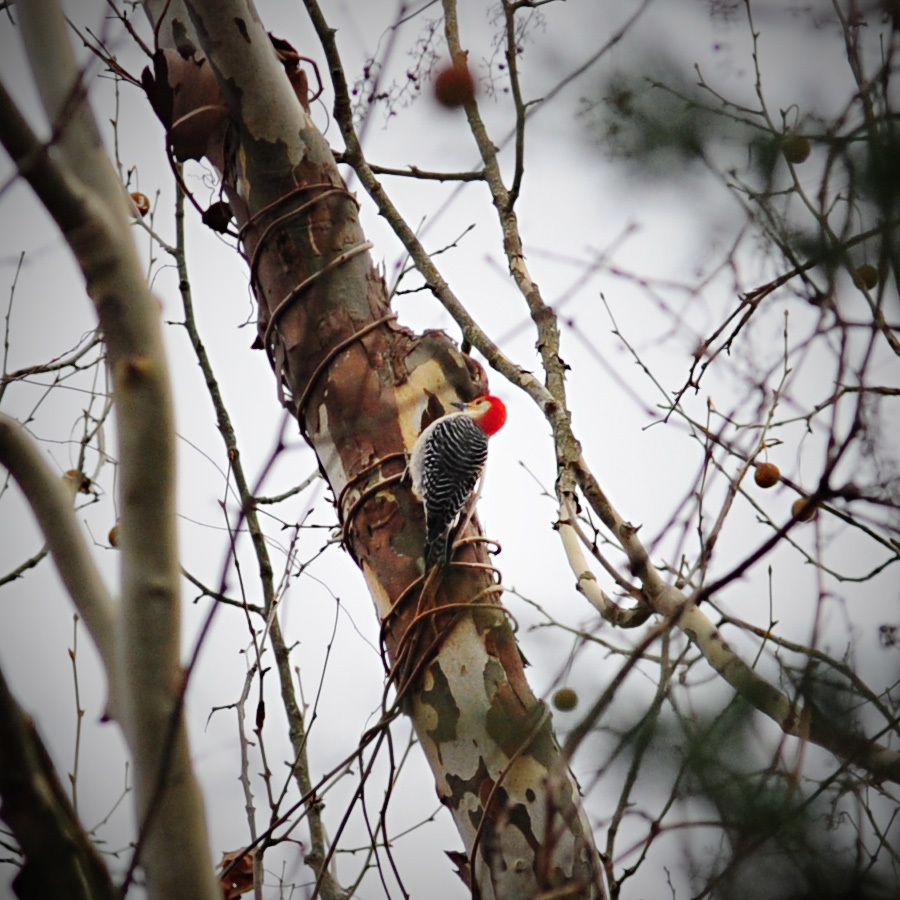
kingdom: Animalia
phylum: Chordata
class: Aves
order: Piciformes
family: Picidae
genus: Melanerpes
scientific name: Melanerpes carolinus
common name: Red-bellied woodpecker
